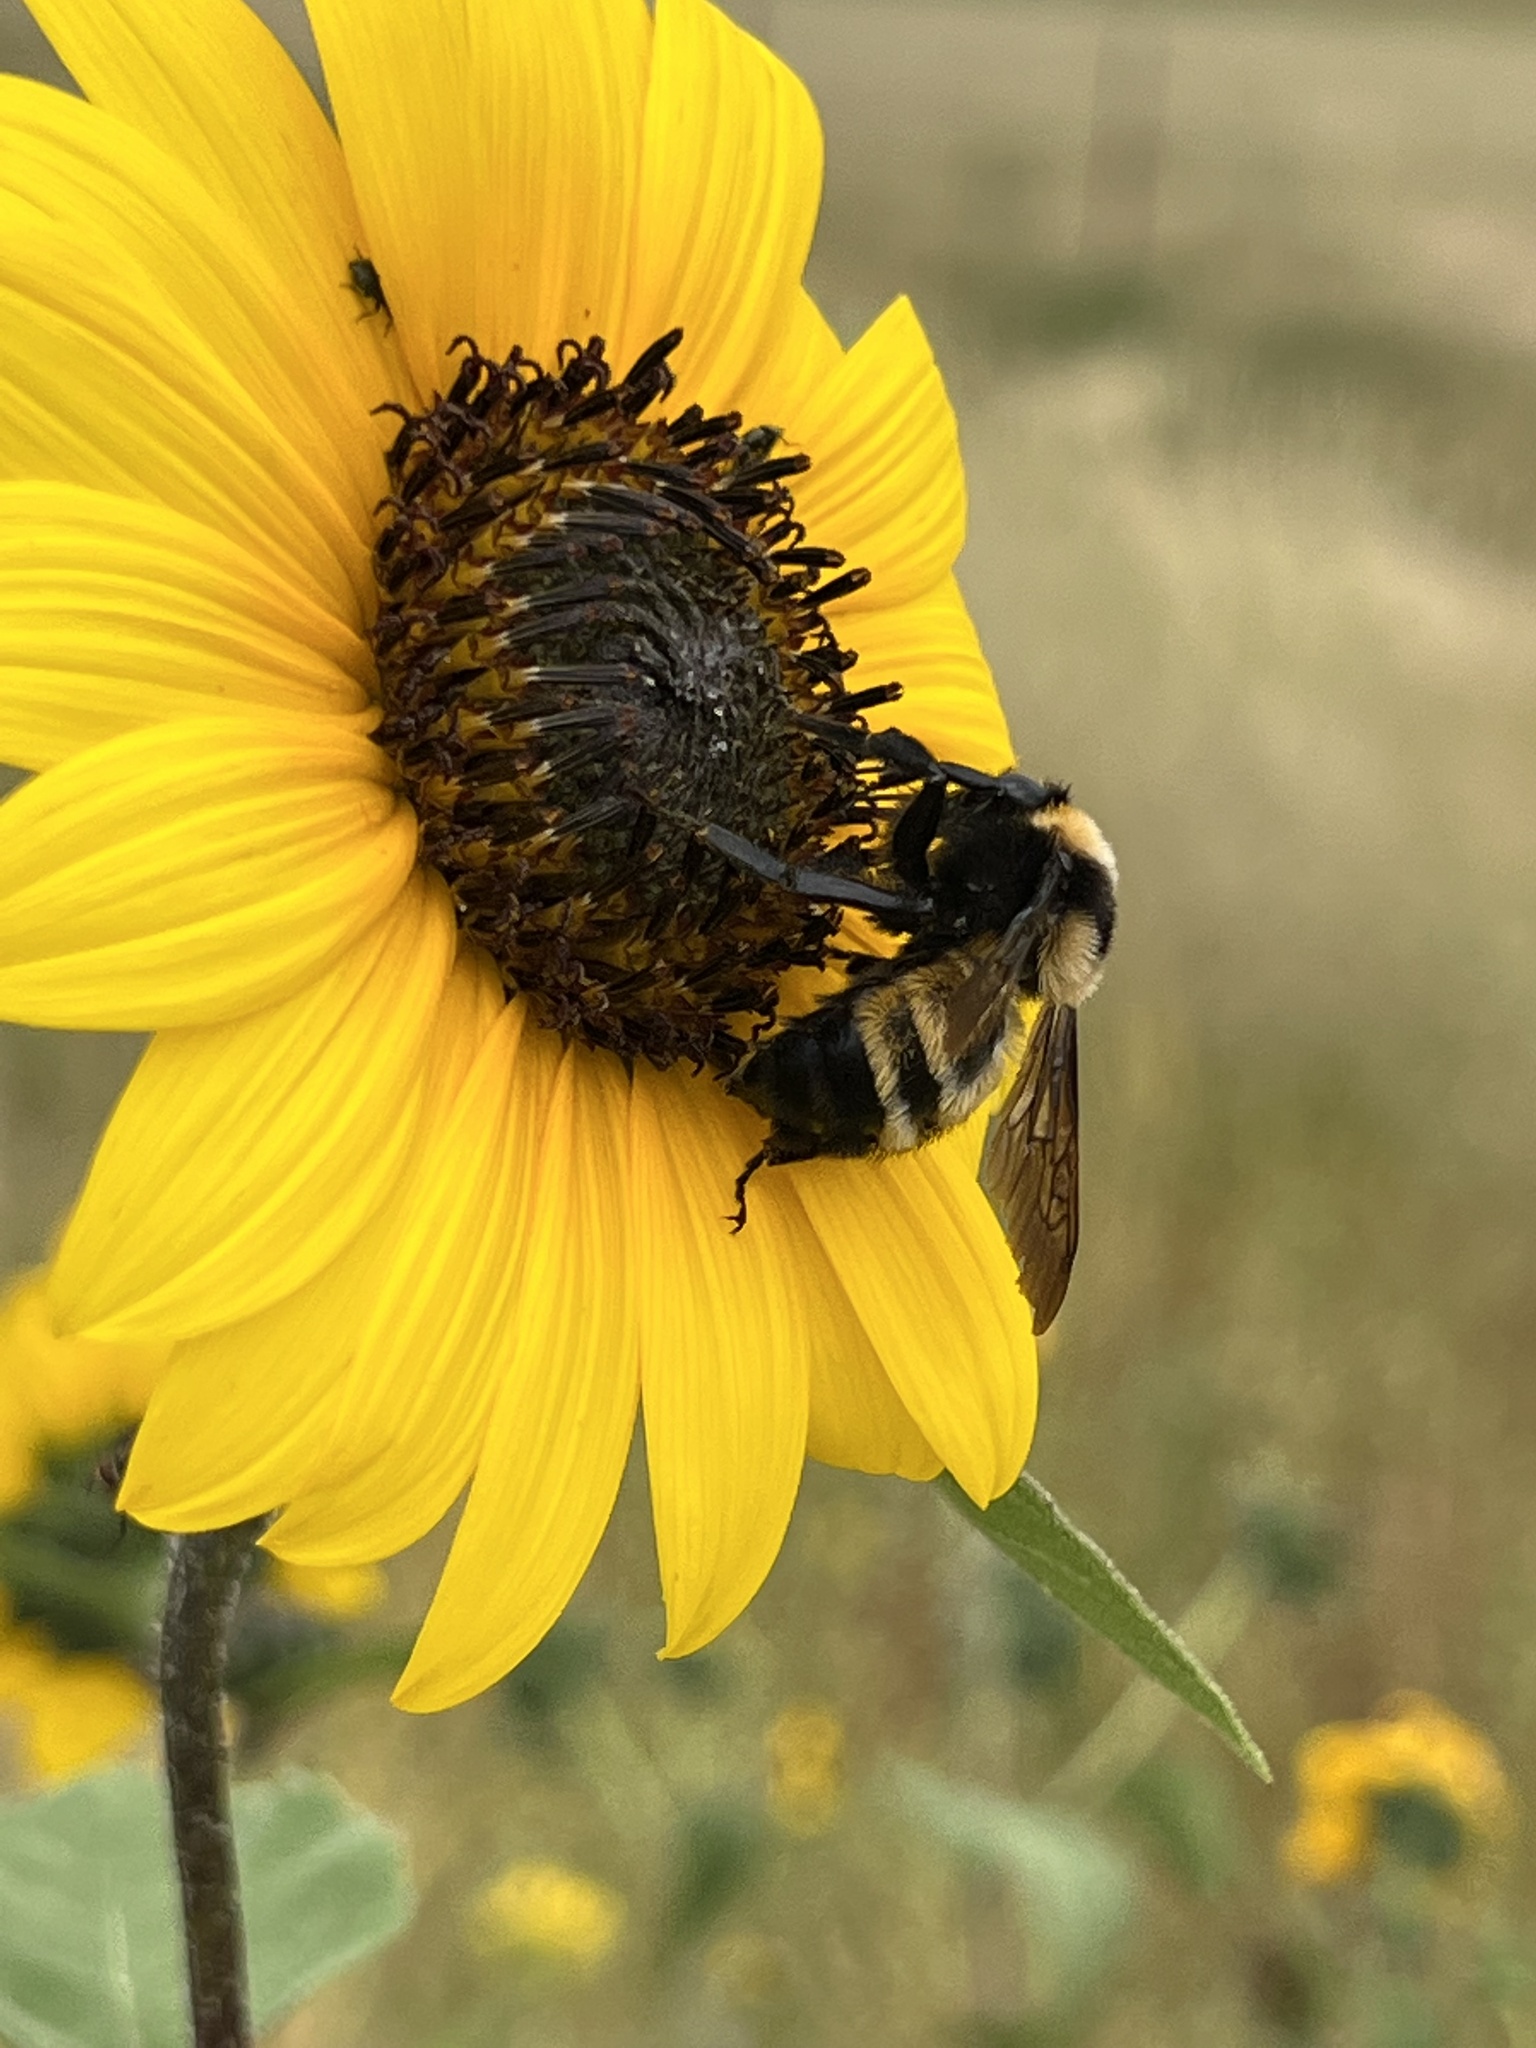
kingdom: Animalia
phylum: Arthropoda
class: Insecta
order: Hymenoptera
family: Apidae
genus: Bombus
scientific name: Bombus sonorus
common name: Sonoran bumble bee
